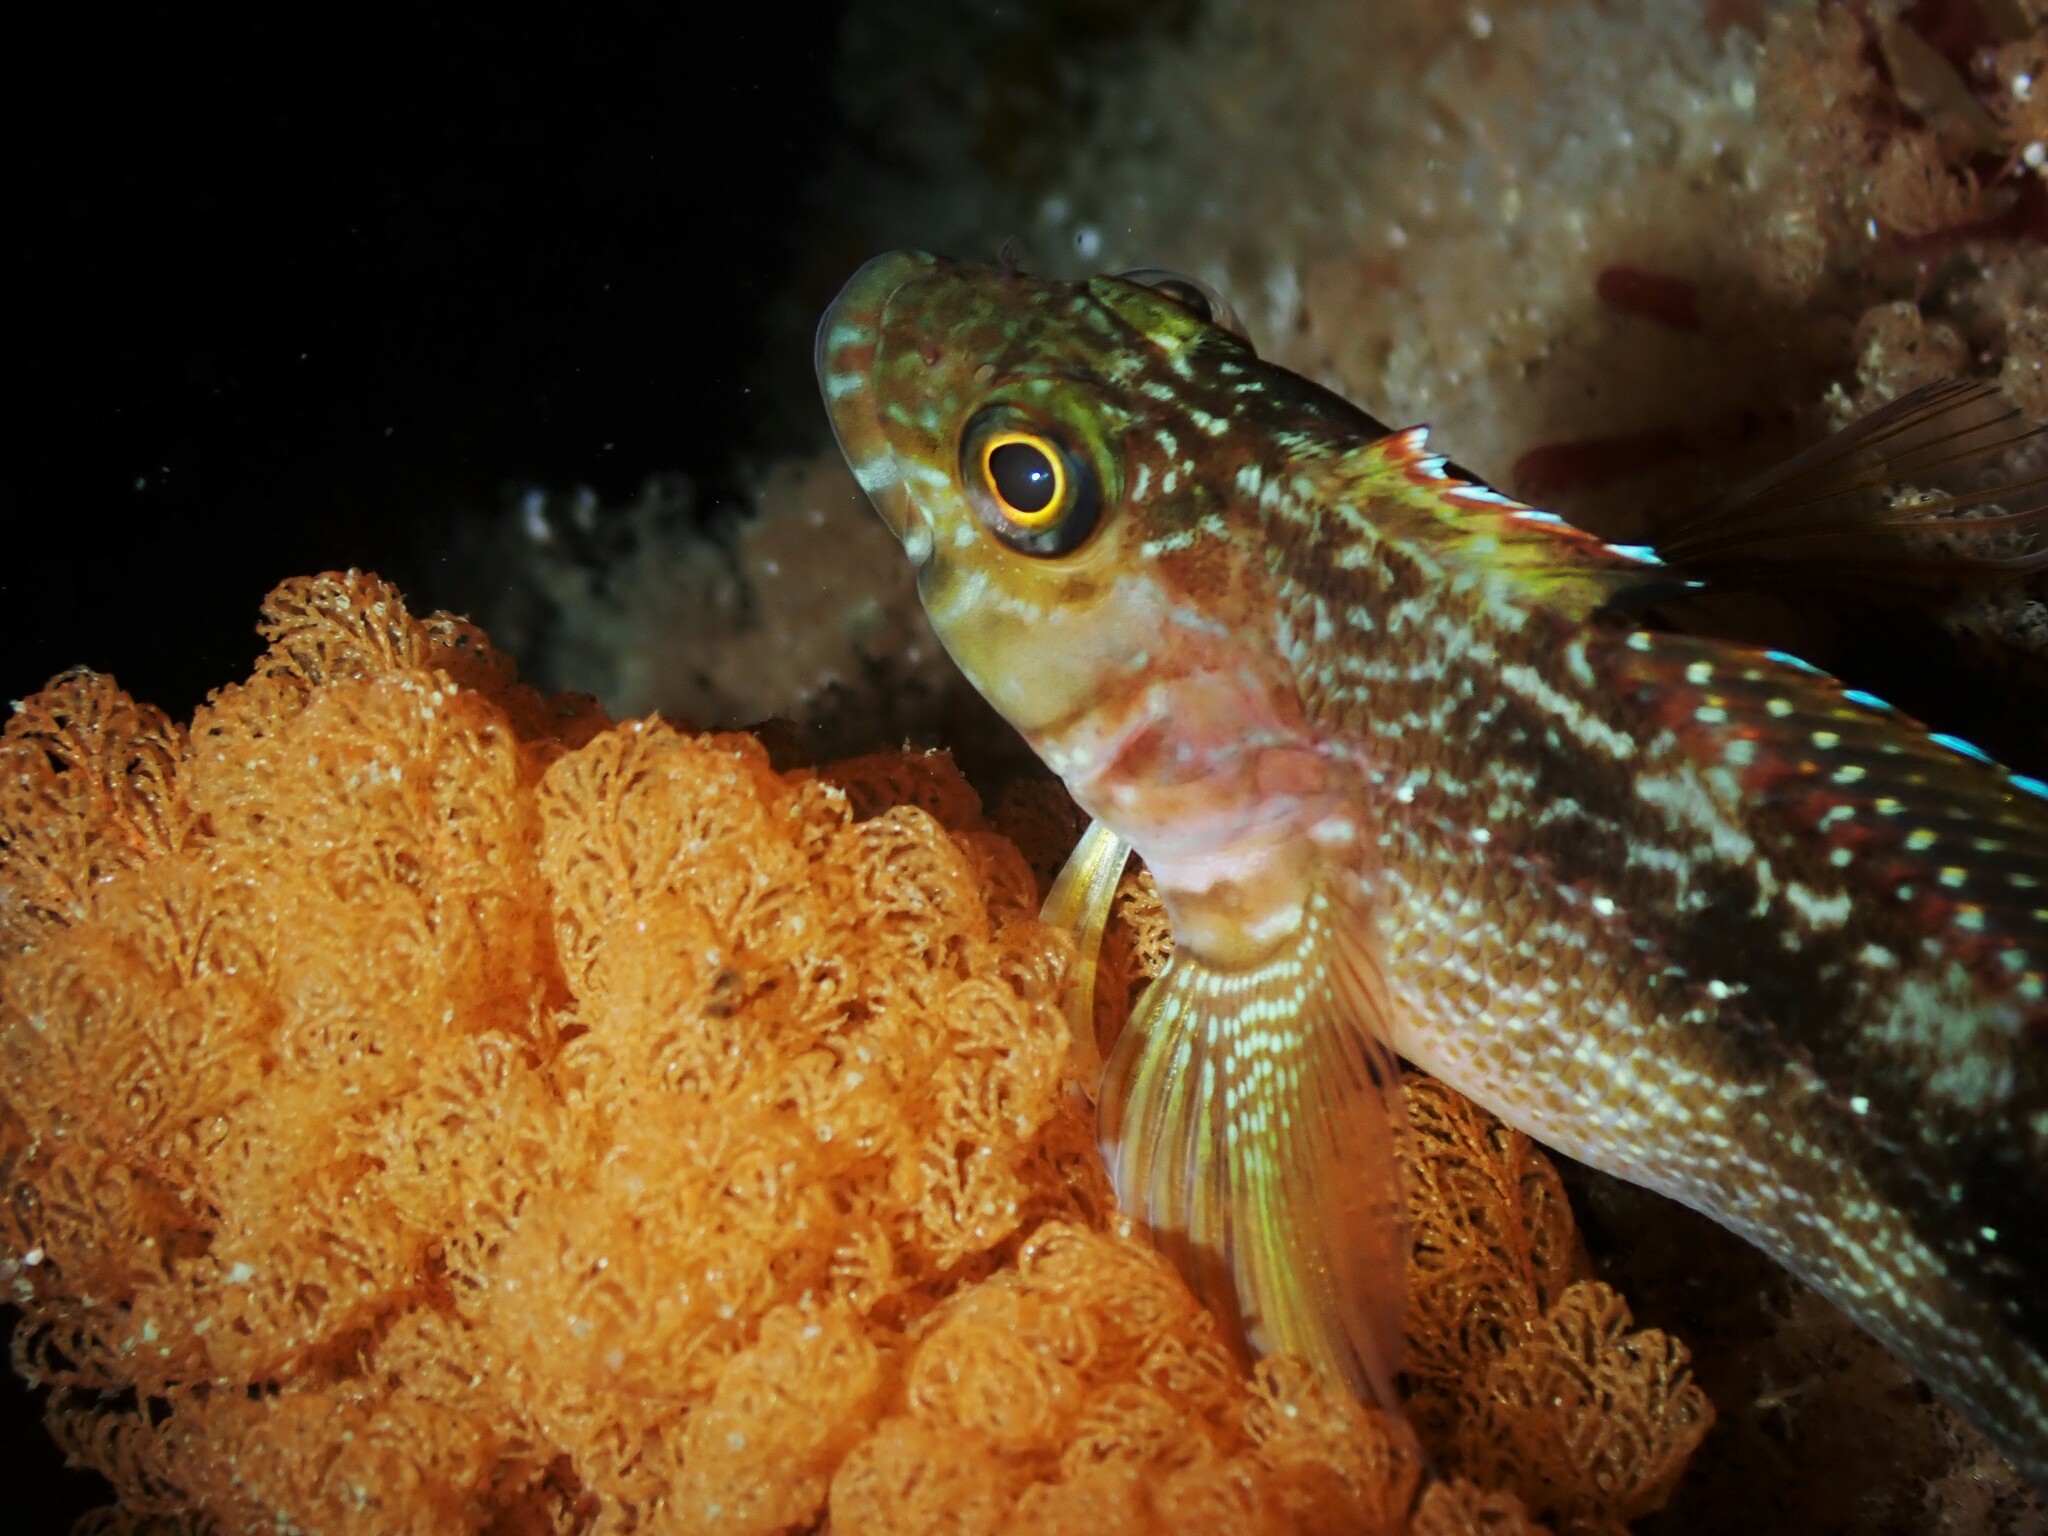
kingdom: Animalia
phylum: Chordata
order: Perciformes
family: Tripterygiidae
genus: Forsterygion
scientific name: Forsterygion varium
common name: Variable triplefin
